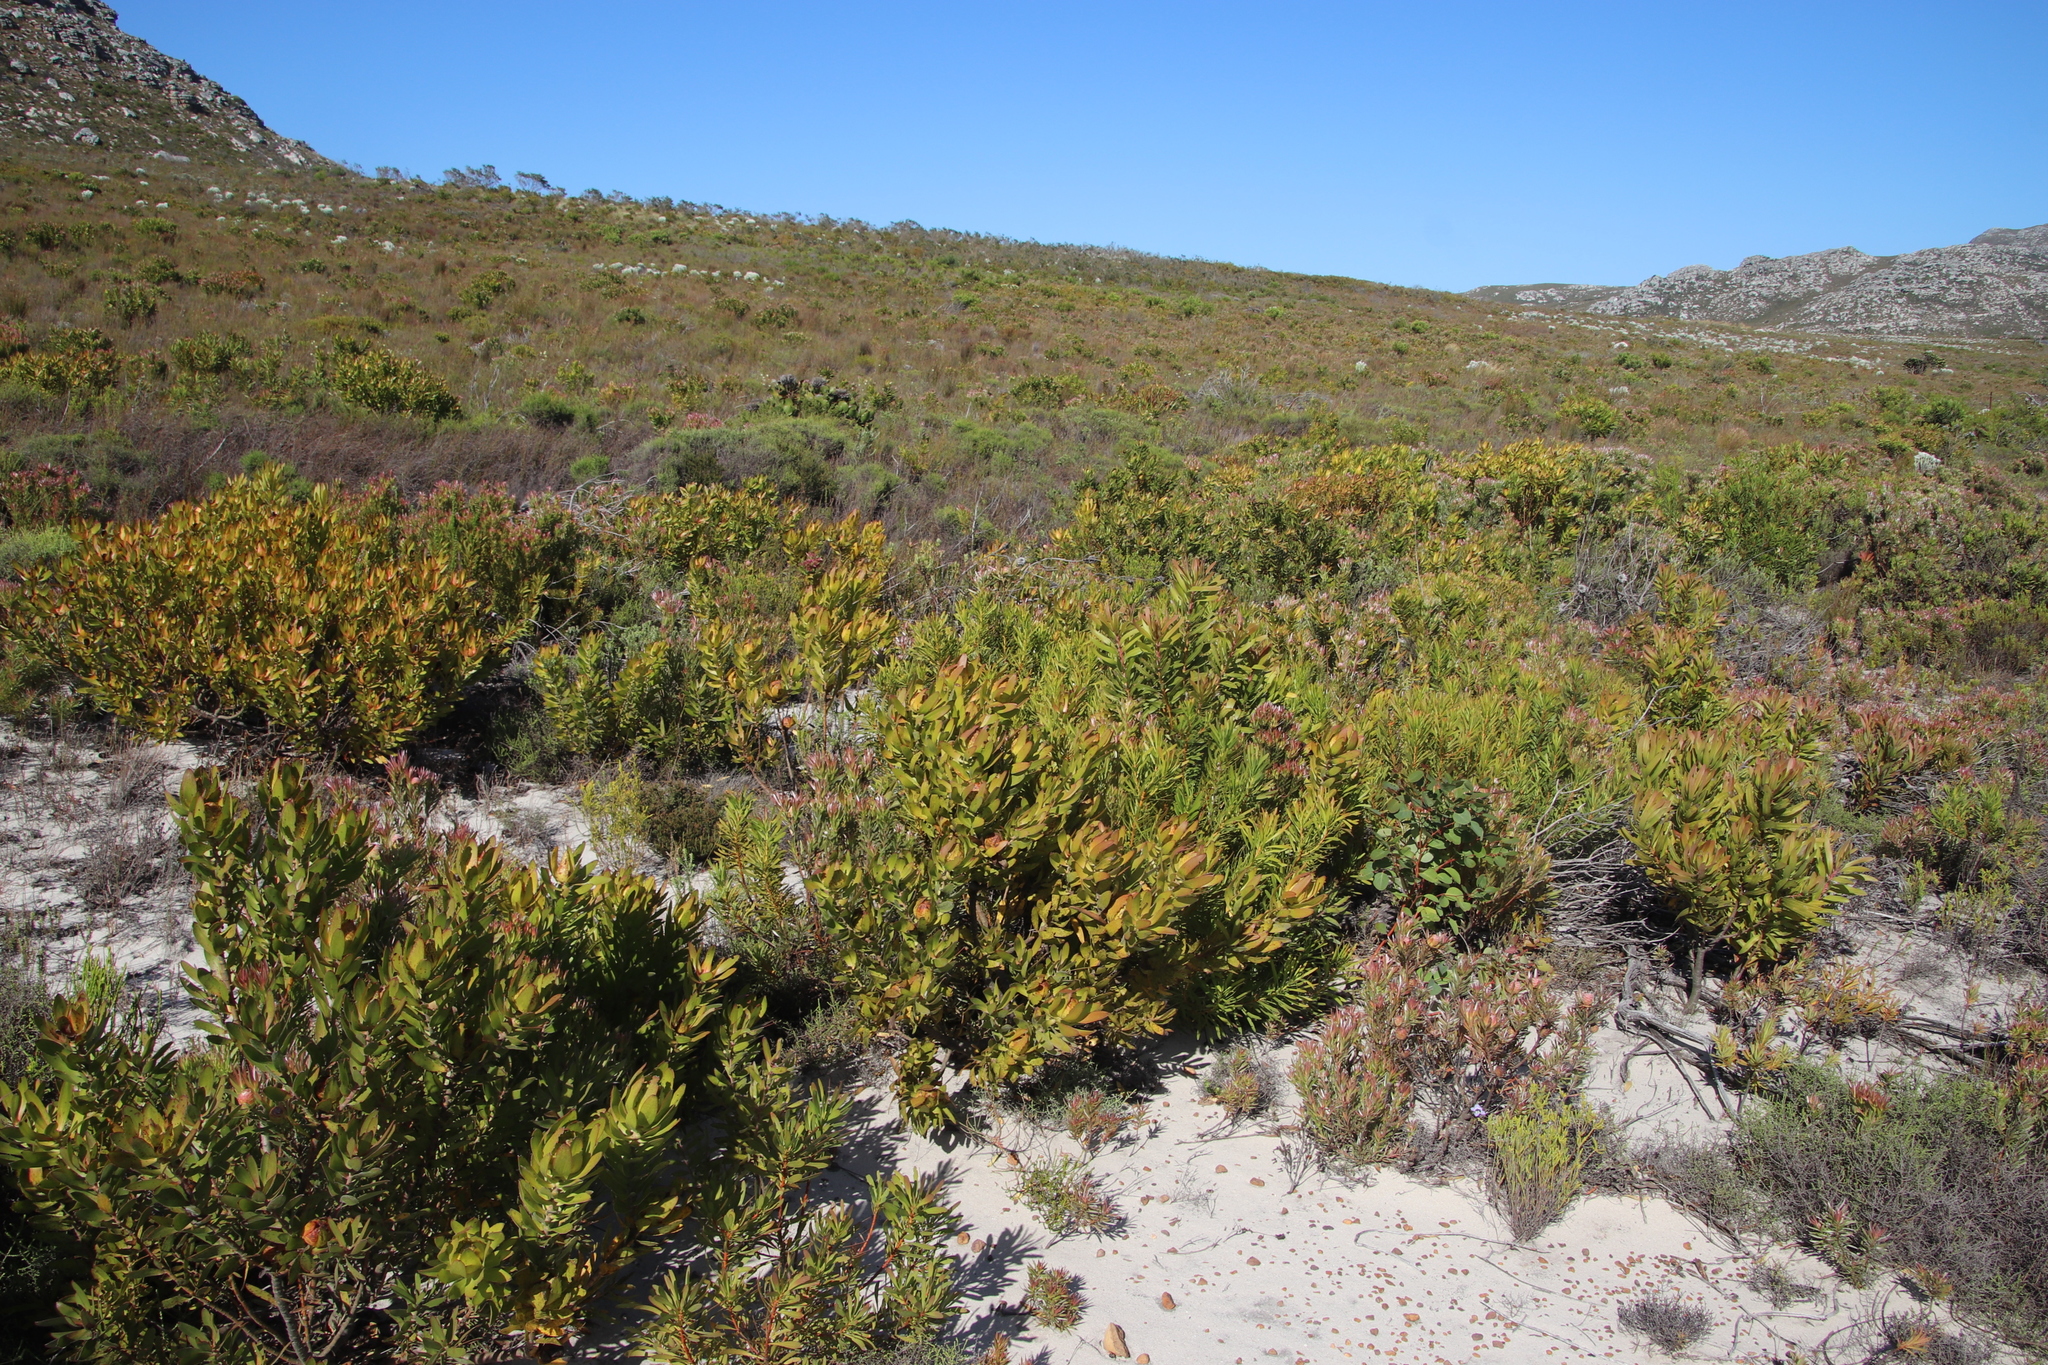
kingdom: Plantae
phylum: Tracheophyta
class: Magnoliopsida
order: Proteales
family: Proteaceae
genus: Leucadendron
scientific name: Leucadendron laureolum
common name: Golden sunshinebush
